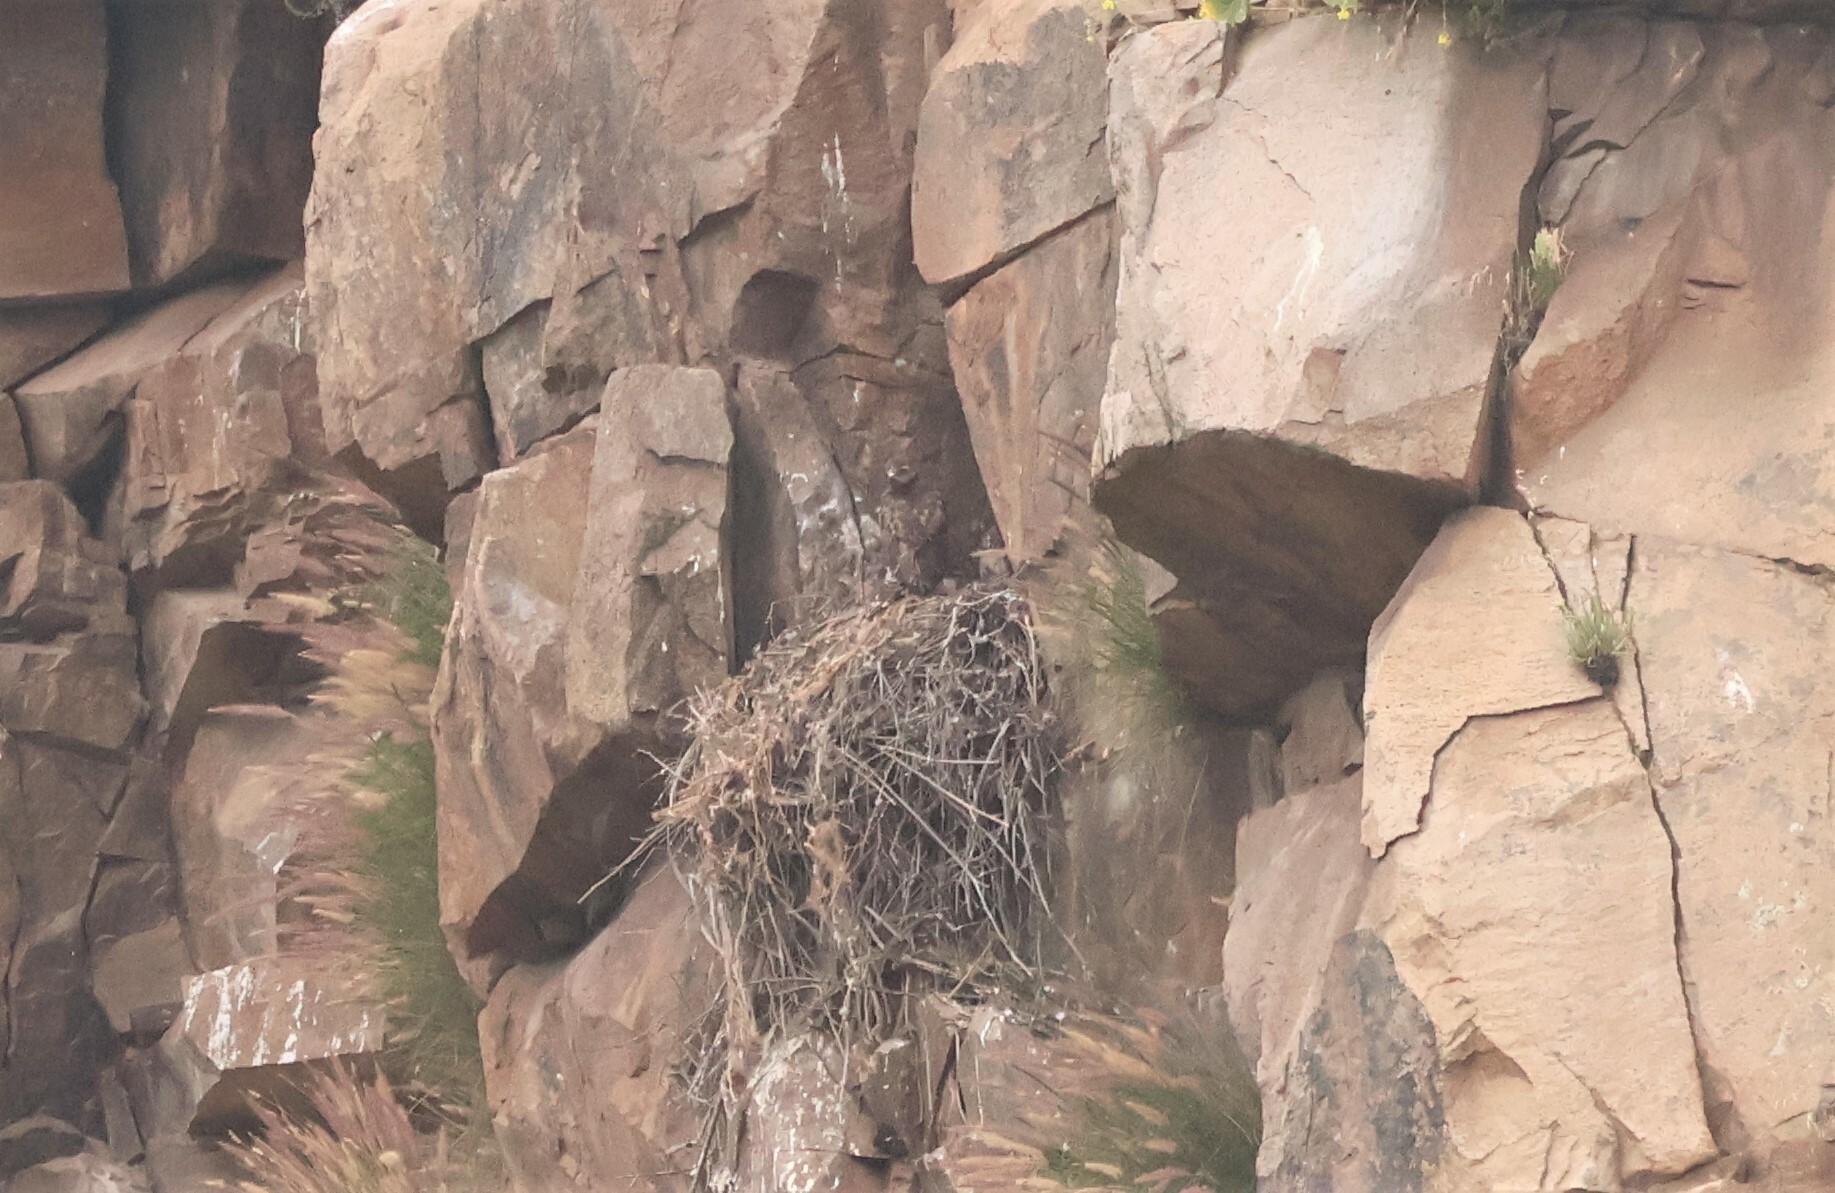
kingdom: Animalia
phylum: Chordata
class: Aves
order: Accipitriformes
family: Accipitridae
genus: Buteo
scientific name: Buteo jamaicensis
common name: Red-tailed hawk
